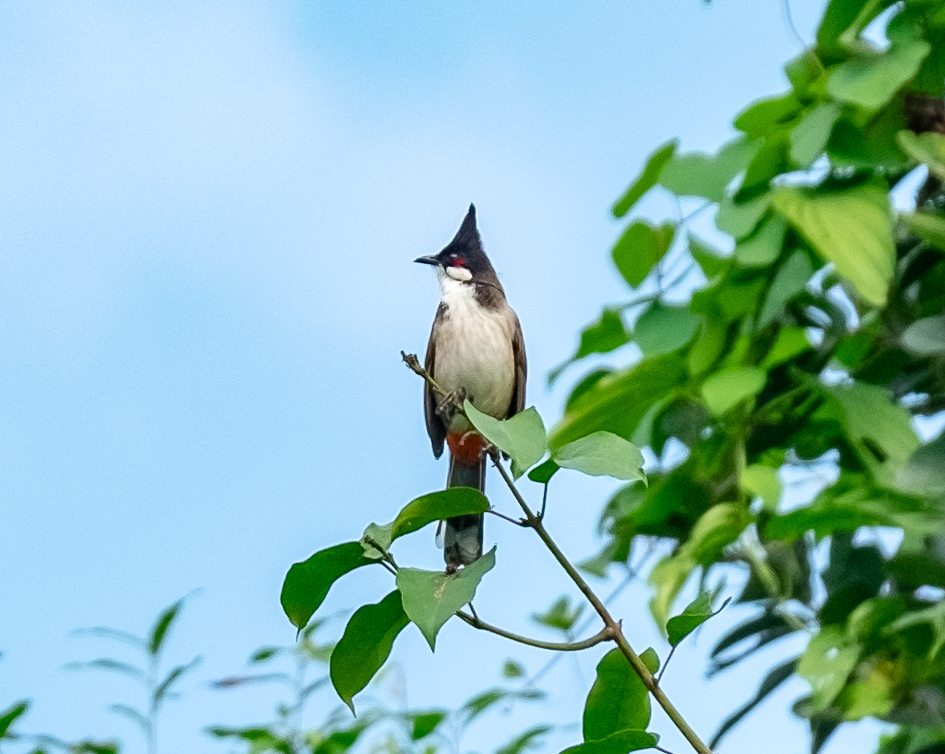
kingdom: Animalia
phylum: Chordata
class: Aves
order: Passeriformes
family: Pycnonotidae
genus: Pycnonotus
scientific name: Pycnonotus jocosus
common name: Red-whiskered bulbul
